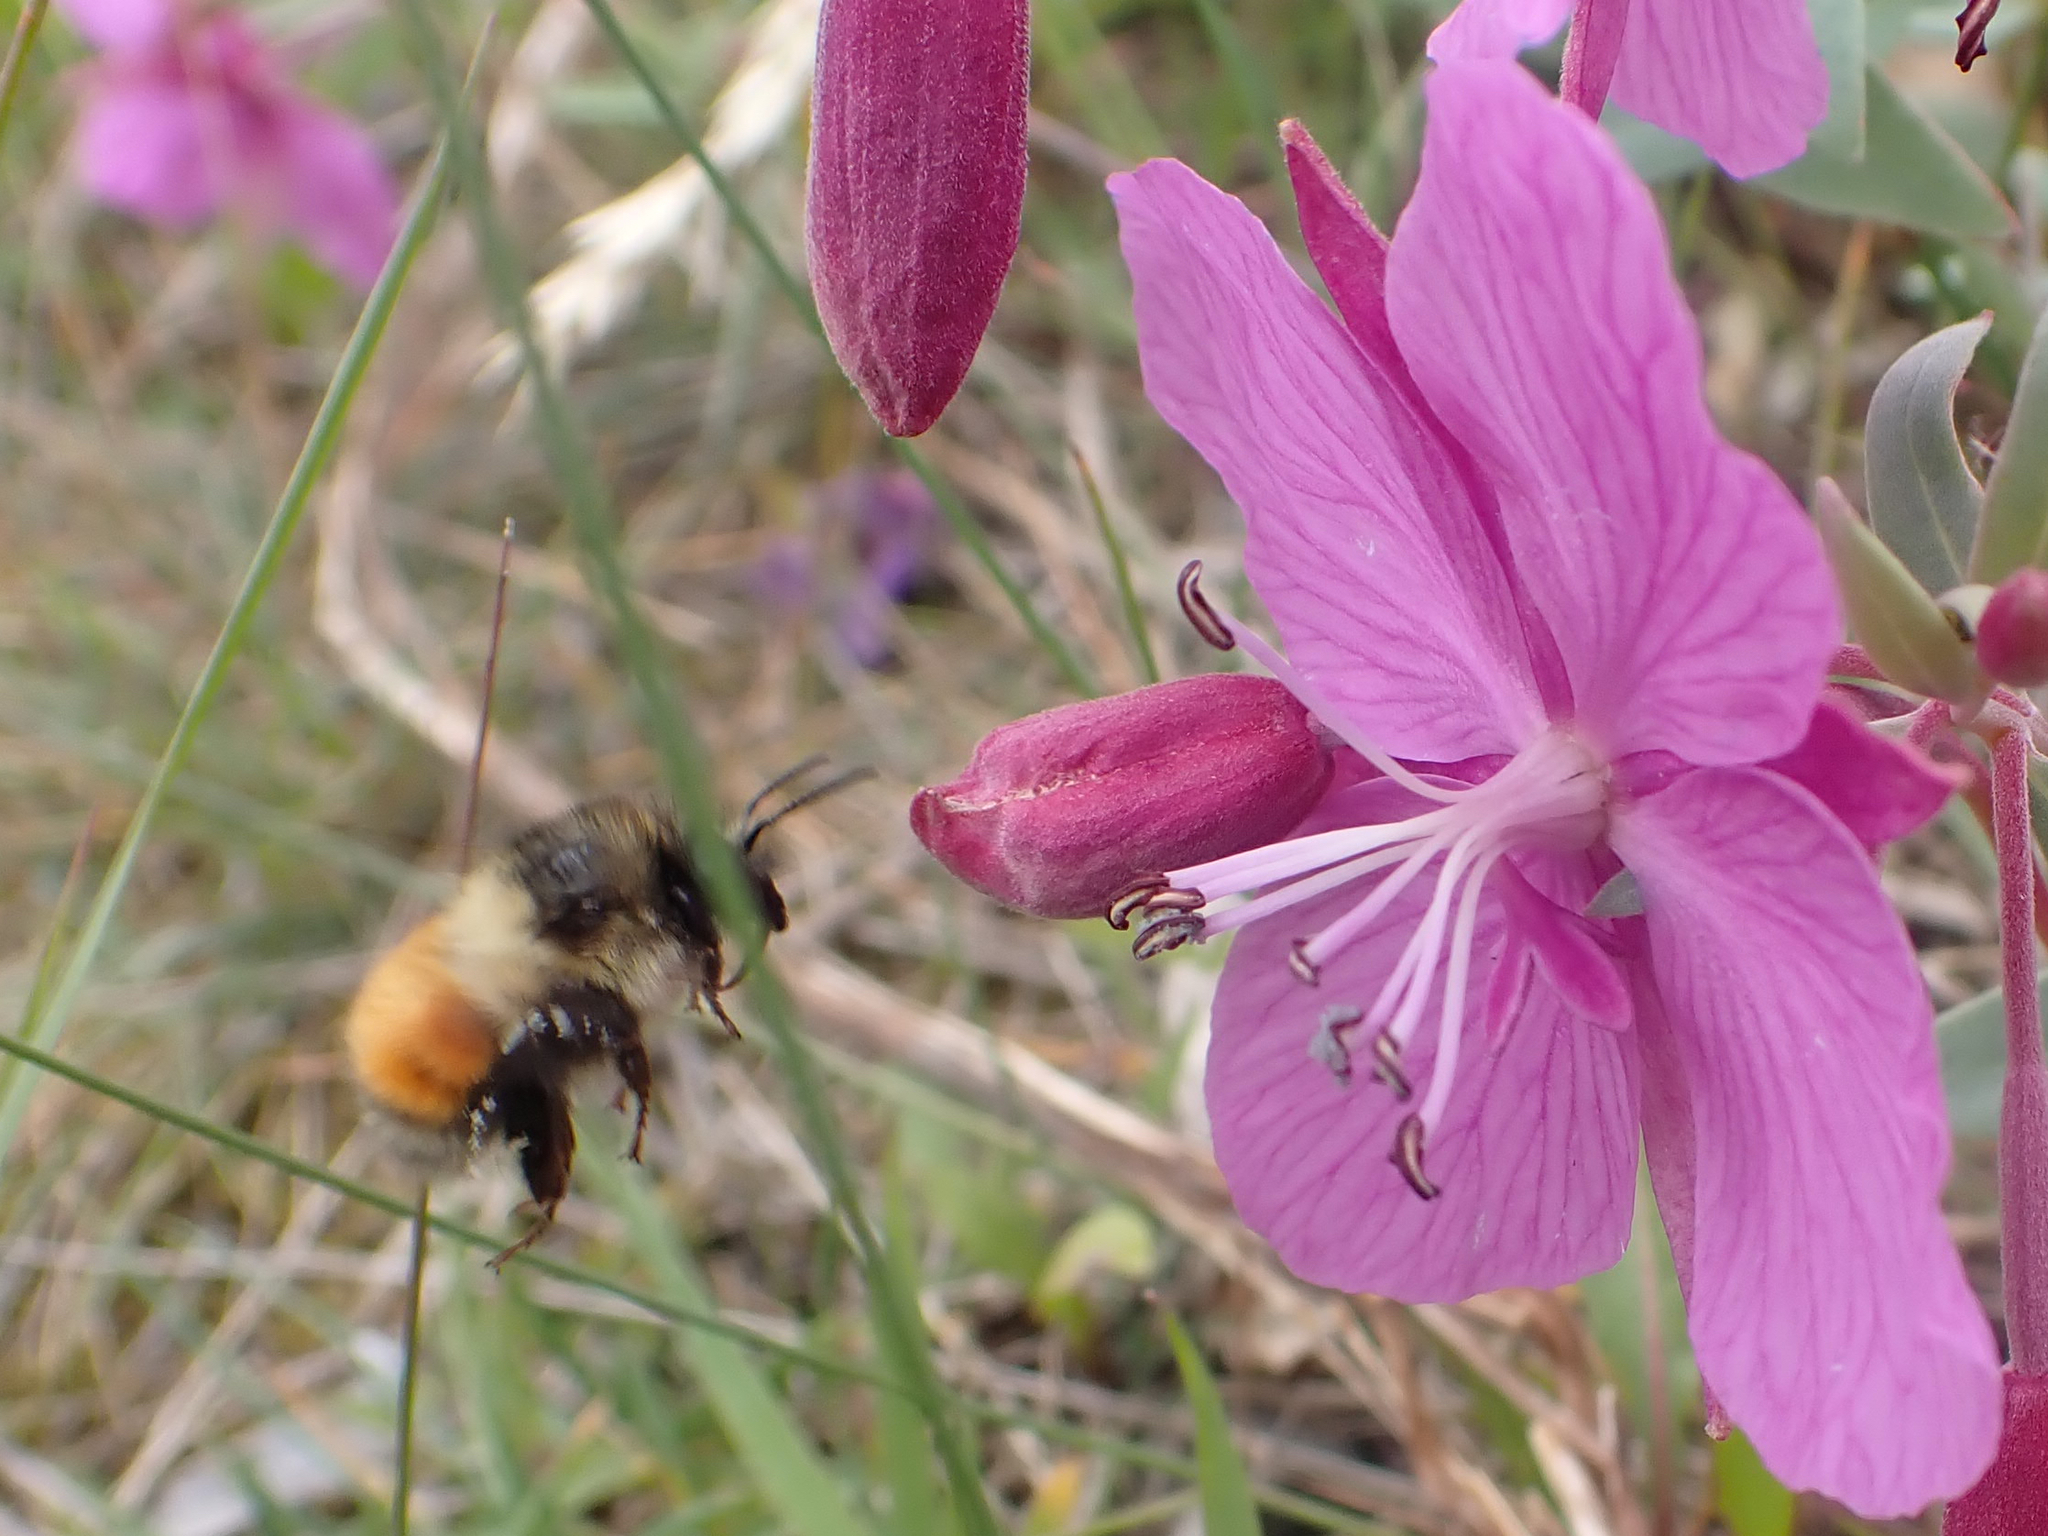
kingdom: Animalia
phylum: Arthropoda
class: Insecta
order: Hymenoptera
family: Apidae
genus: Bombus
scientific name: Bombus melanopygus
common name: Black tail bumble bee
